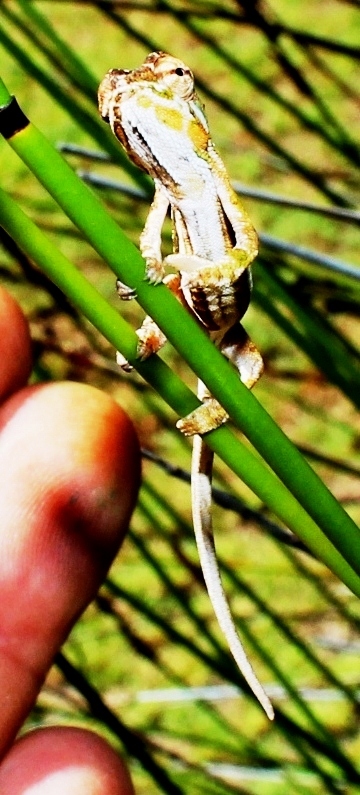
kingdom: Animalia
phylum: Chordata
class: Squamata
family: Chamaeleonidae
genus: Bradypodion
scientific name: Bradypodion pumilum
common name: Cape dwarf chameleon
